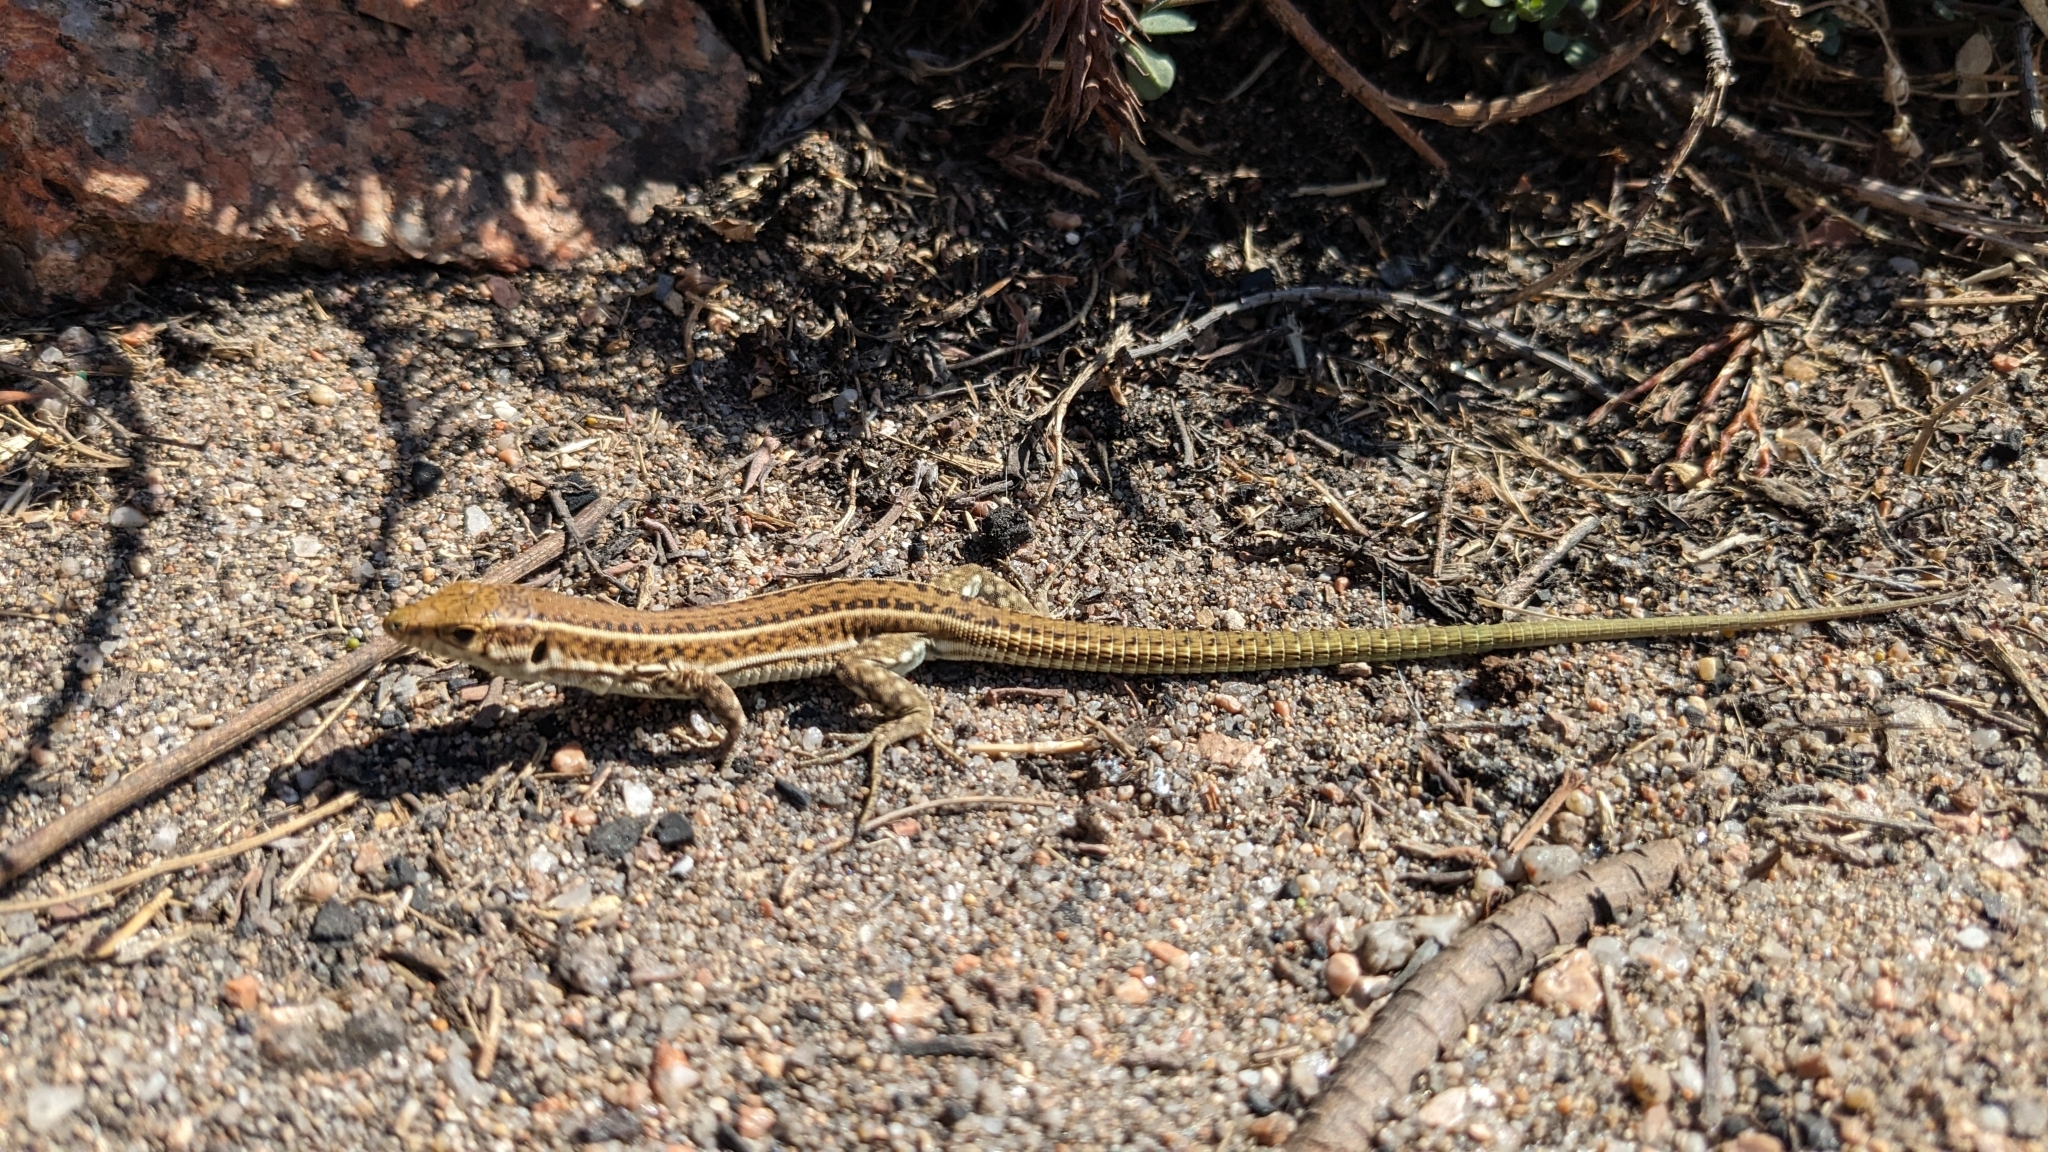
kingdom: Animalia
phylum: Chordata
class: Squamata
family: Lacertidae
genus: Podarcis
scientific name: Podarcis tiliguerta
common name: Tyrrhenian wall lizard
